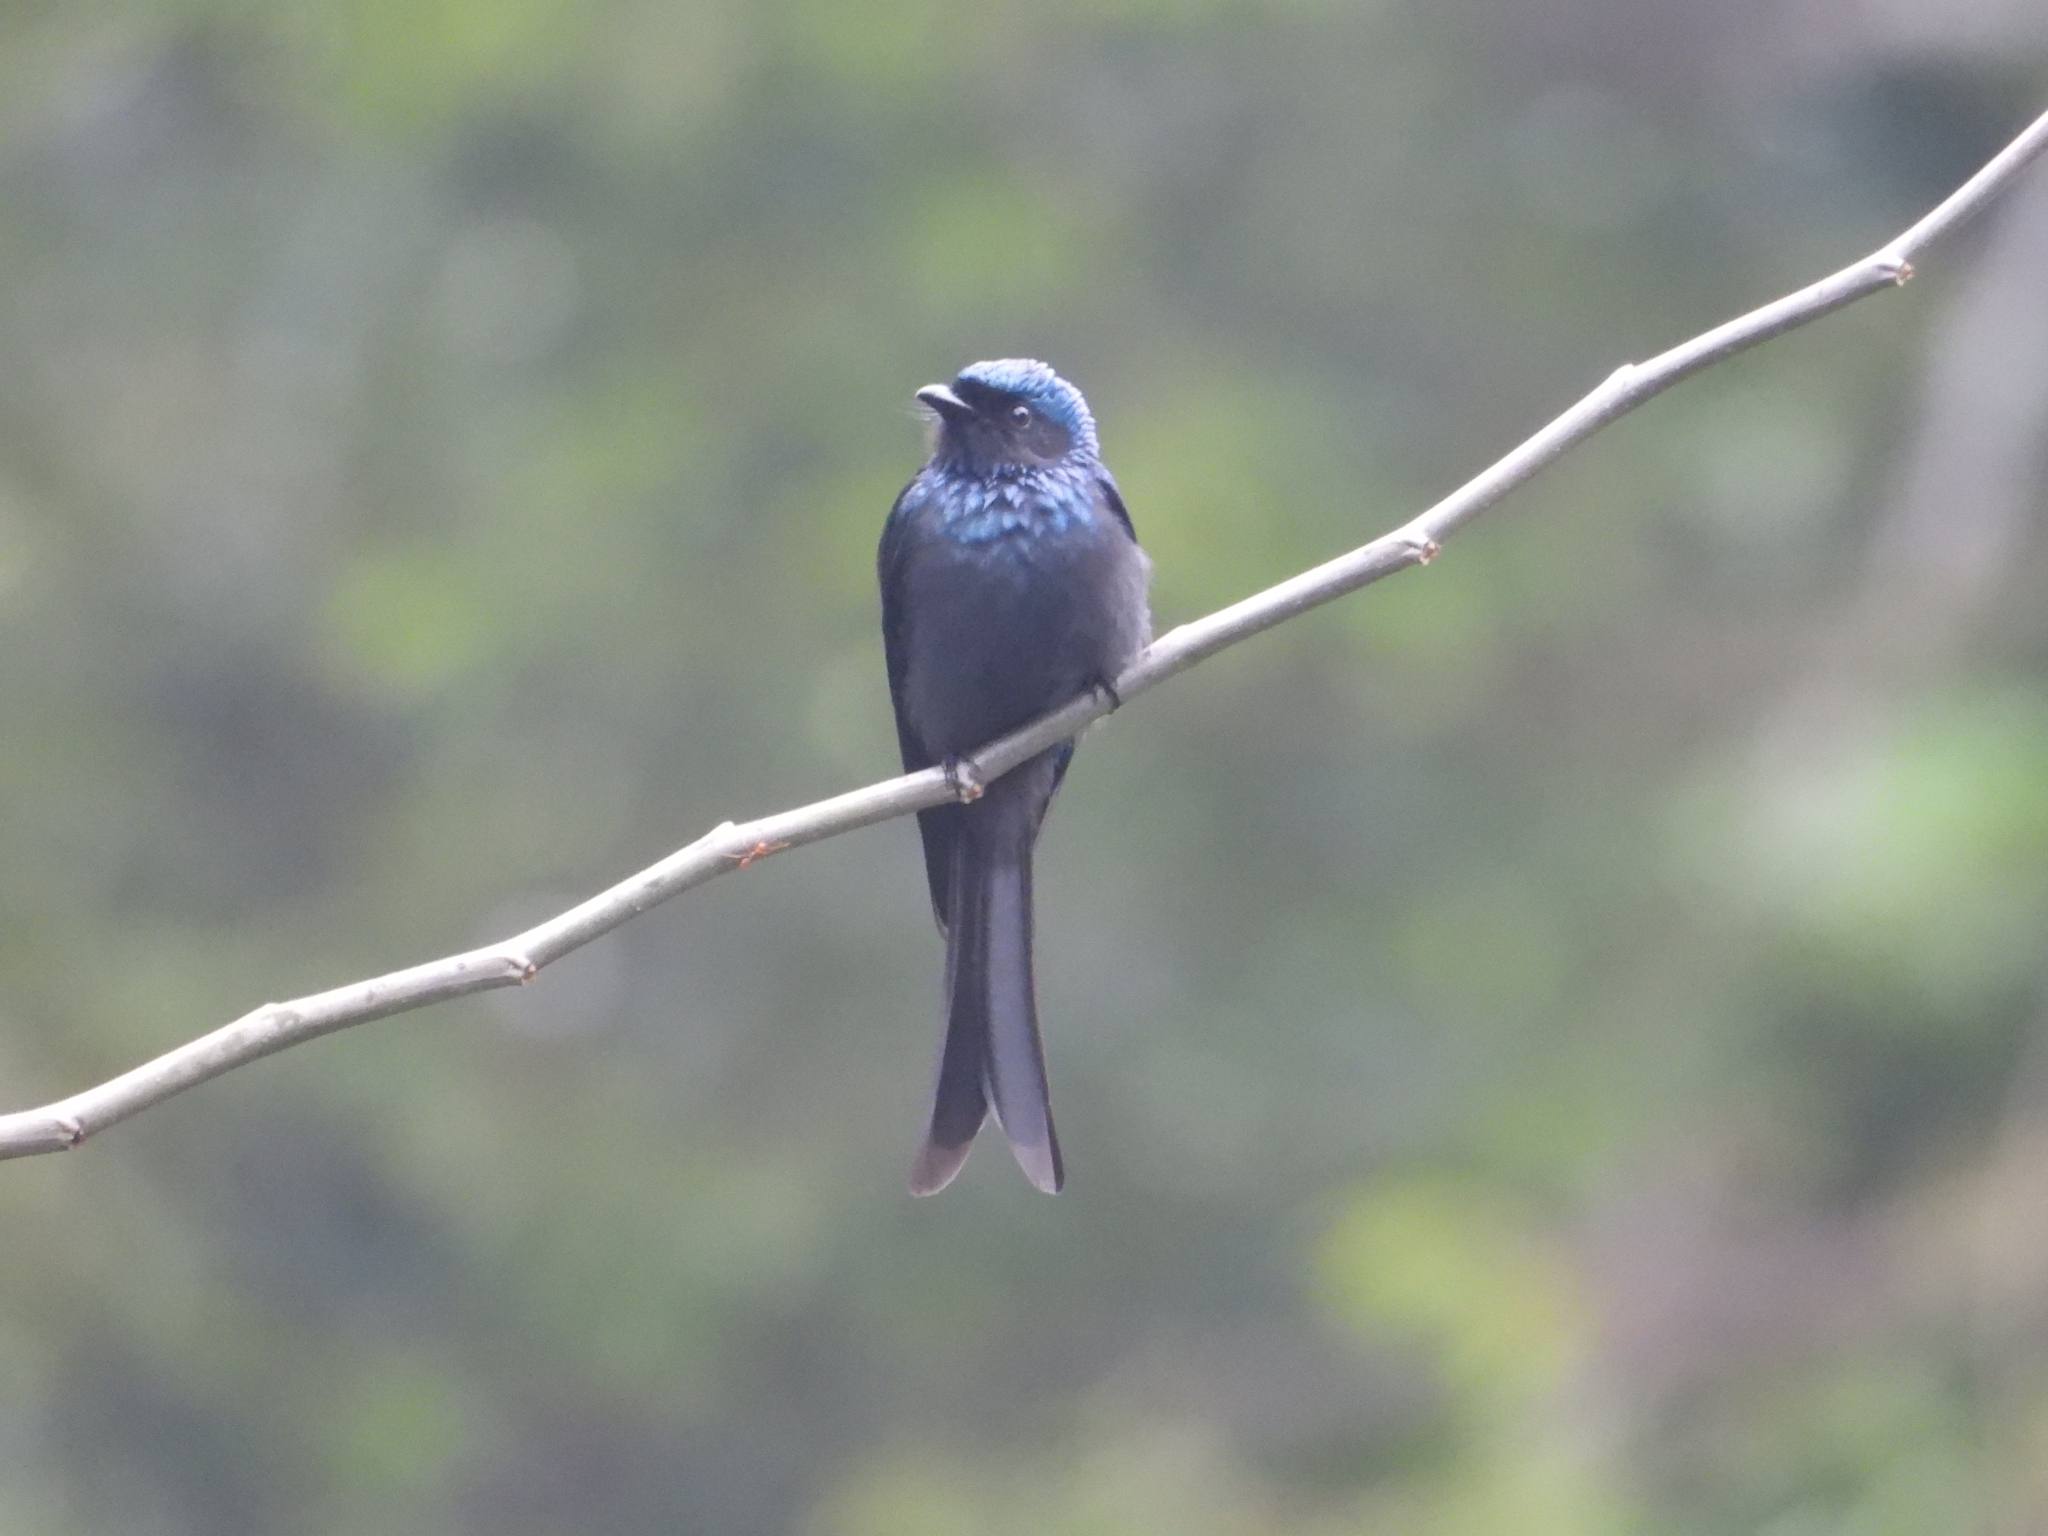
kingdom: Animalia
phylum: Chordata
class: Aves
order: Passeriformes
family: Dicruridae
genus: Dicrurus
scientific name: Dicrurus aeneus
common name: Bronzed drongo
